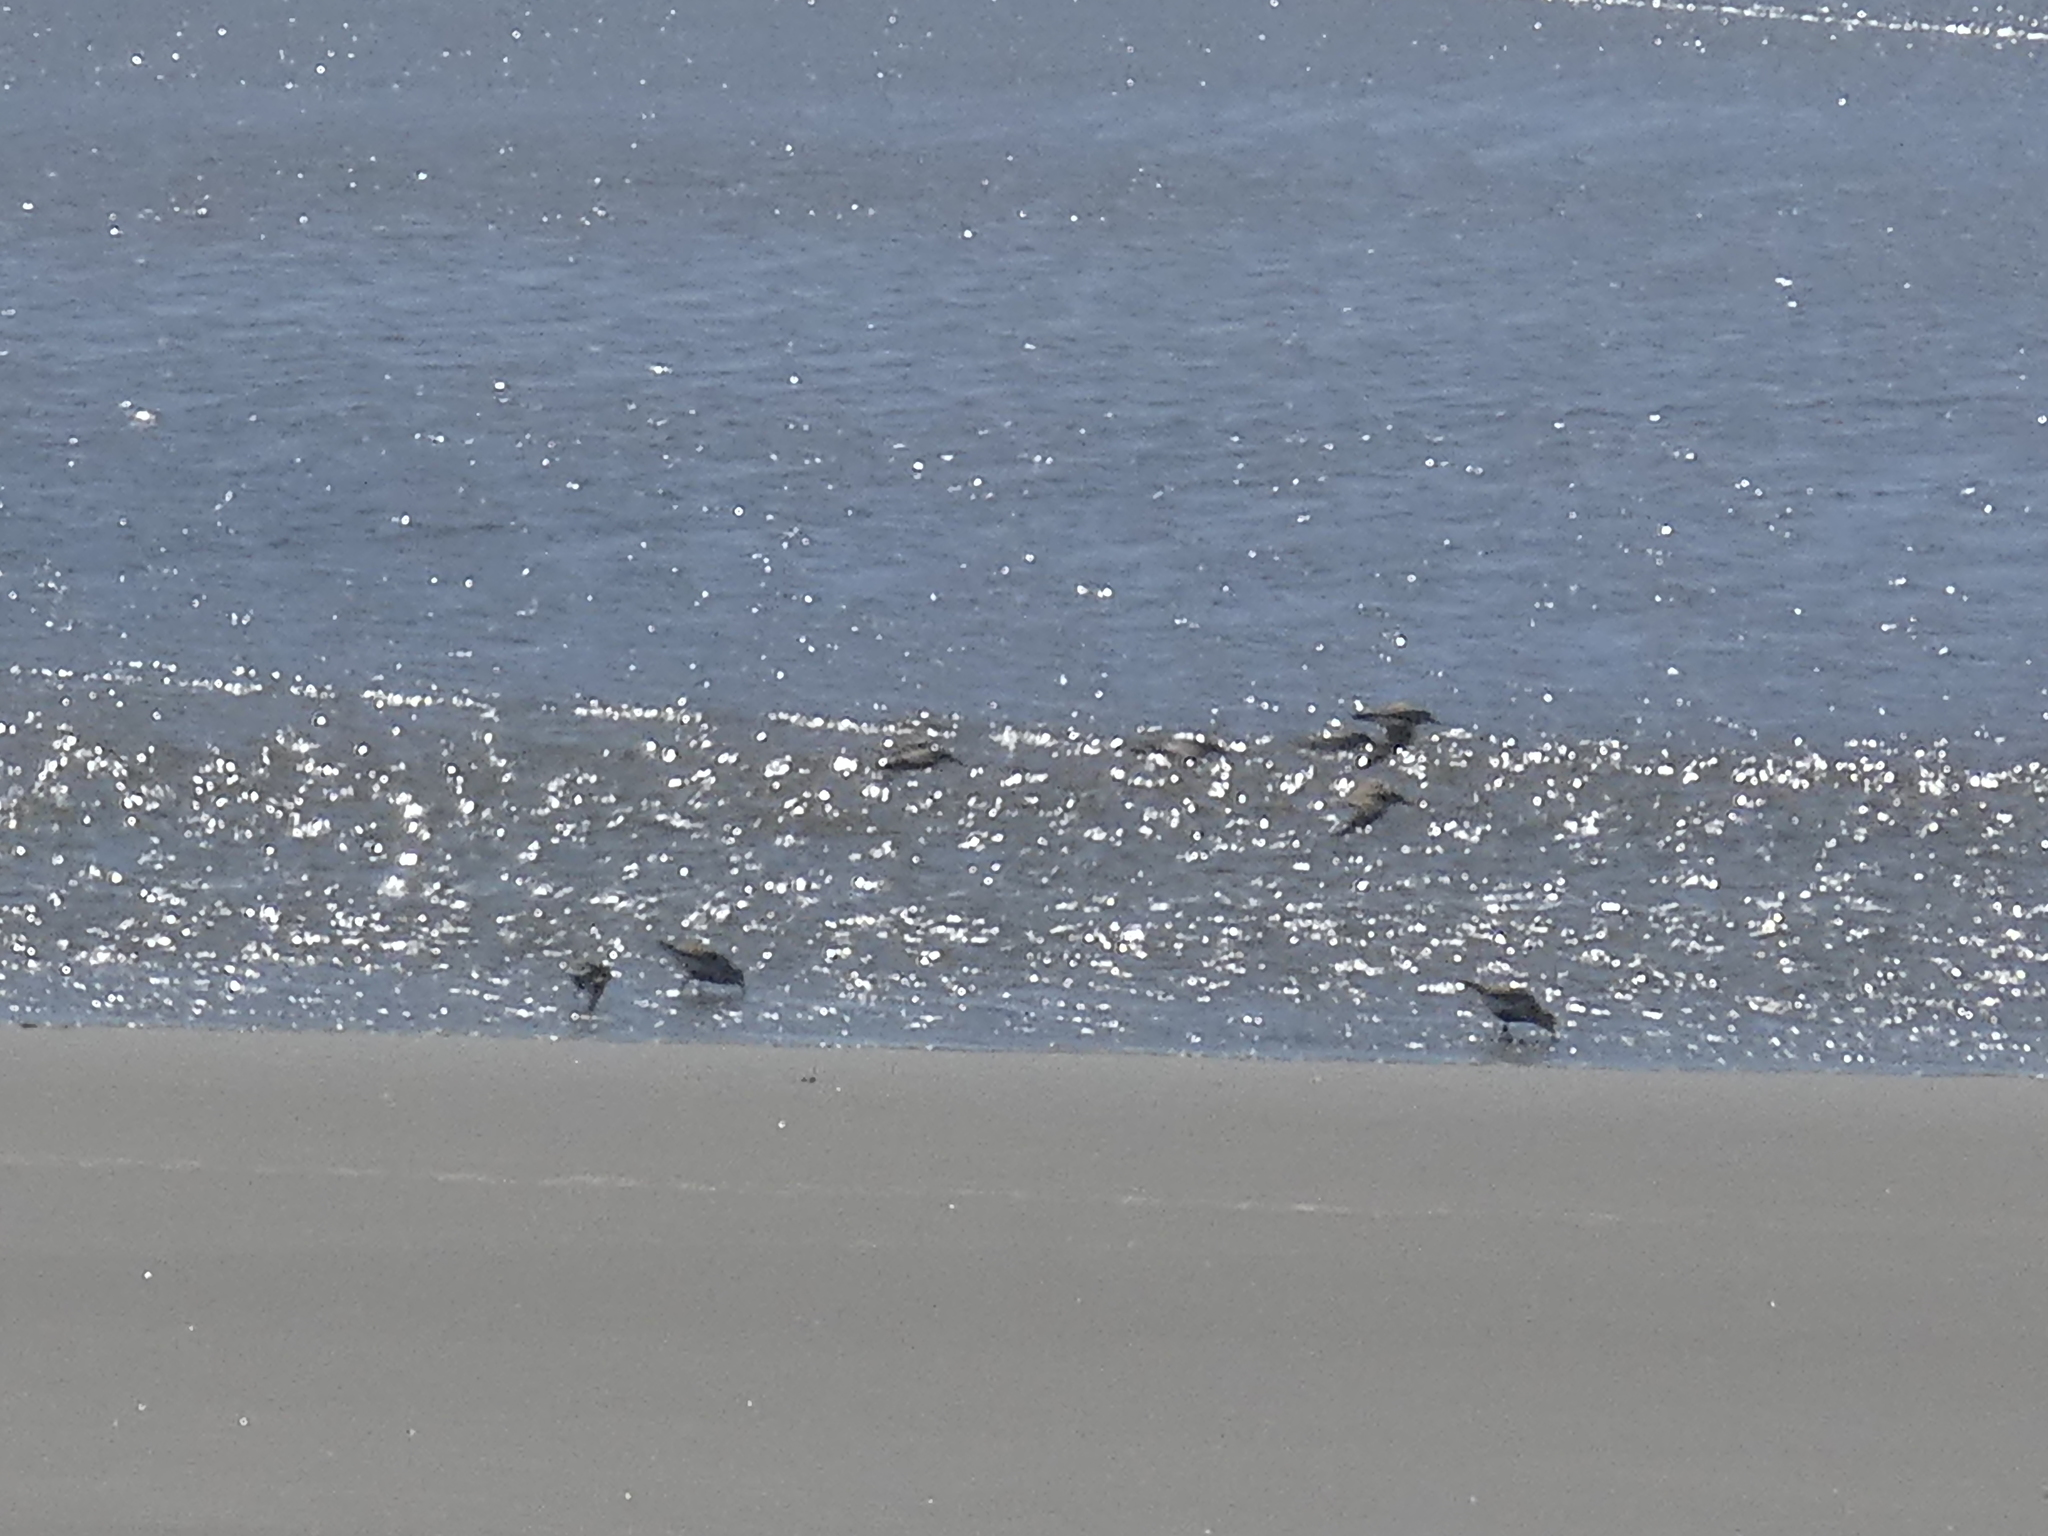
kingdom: Animalia
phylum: Chordata
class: Aves
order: Charadriiformes
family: Scolopacidae
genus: Calidris
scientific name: Calidris alpina
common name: Dunlin
